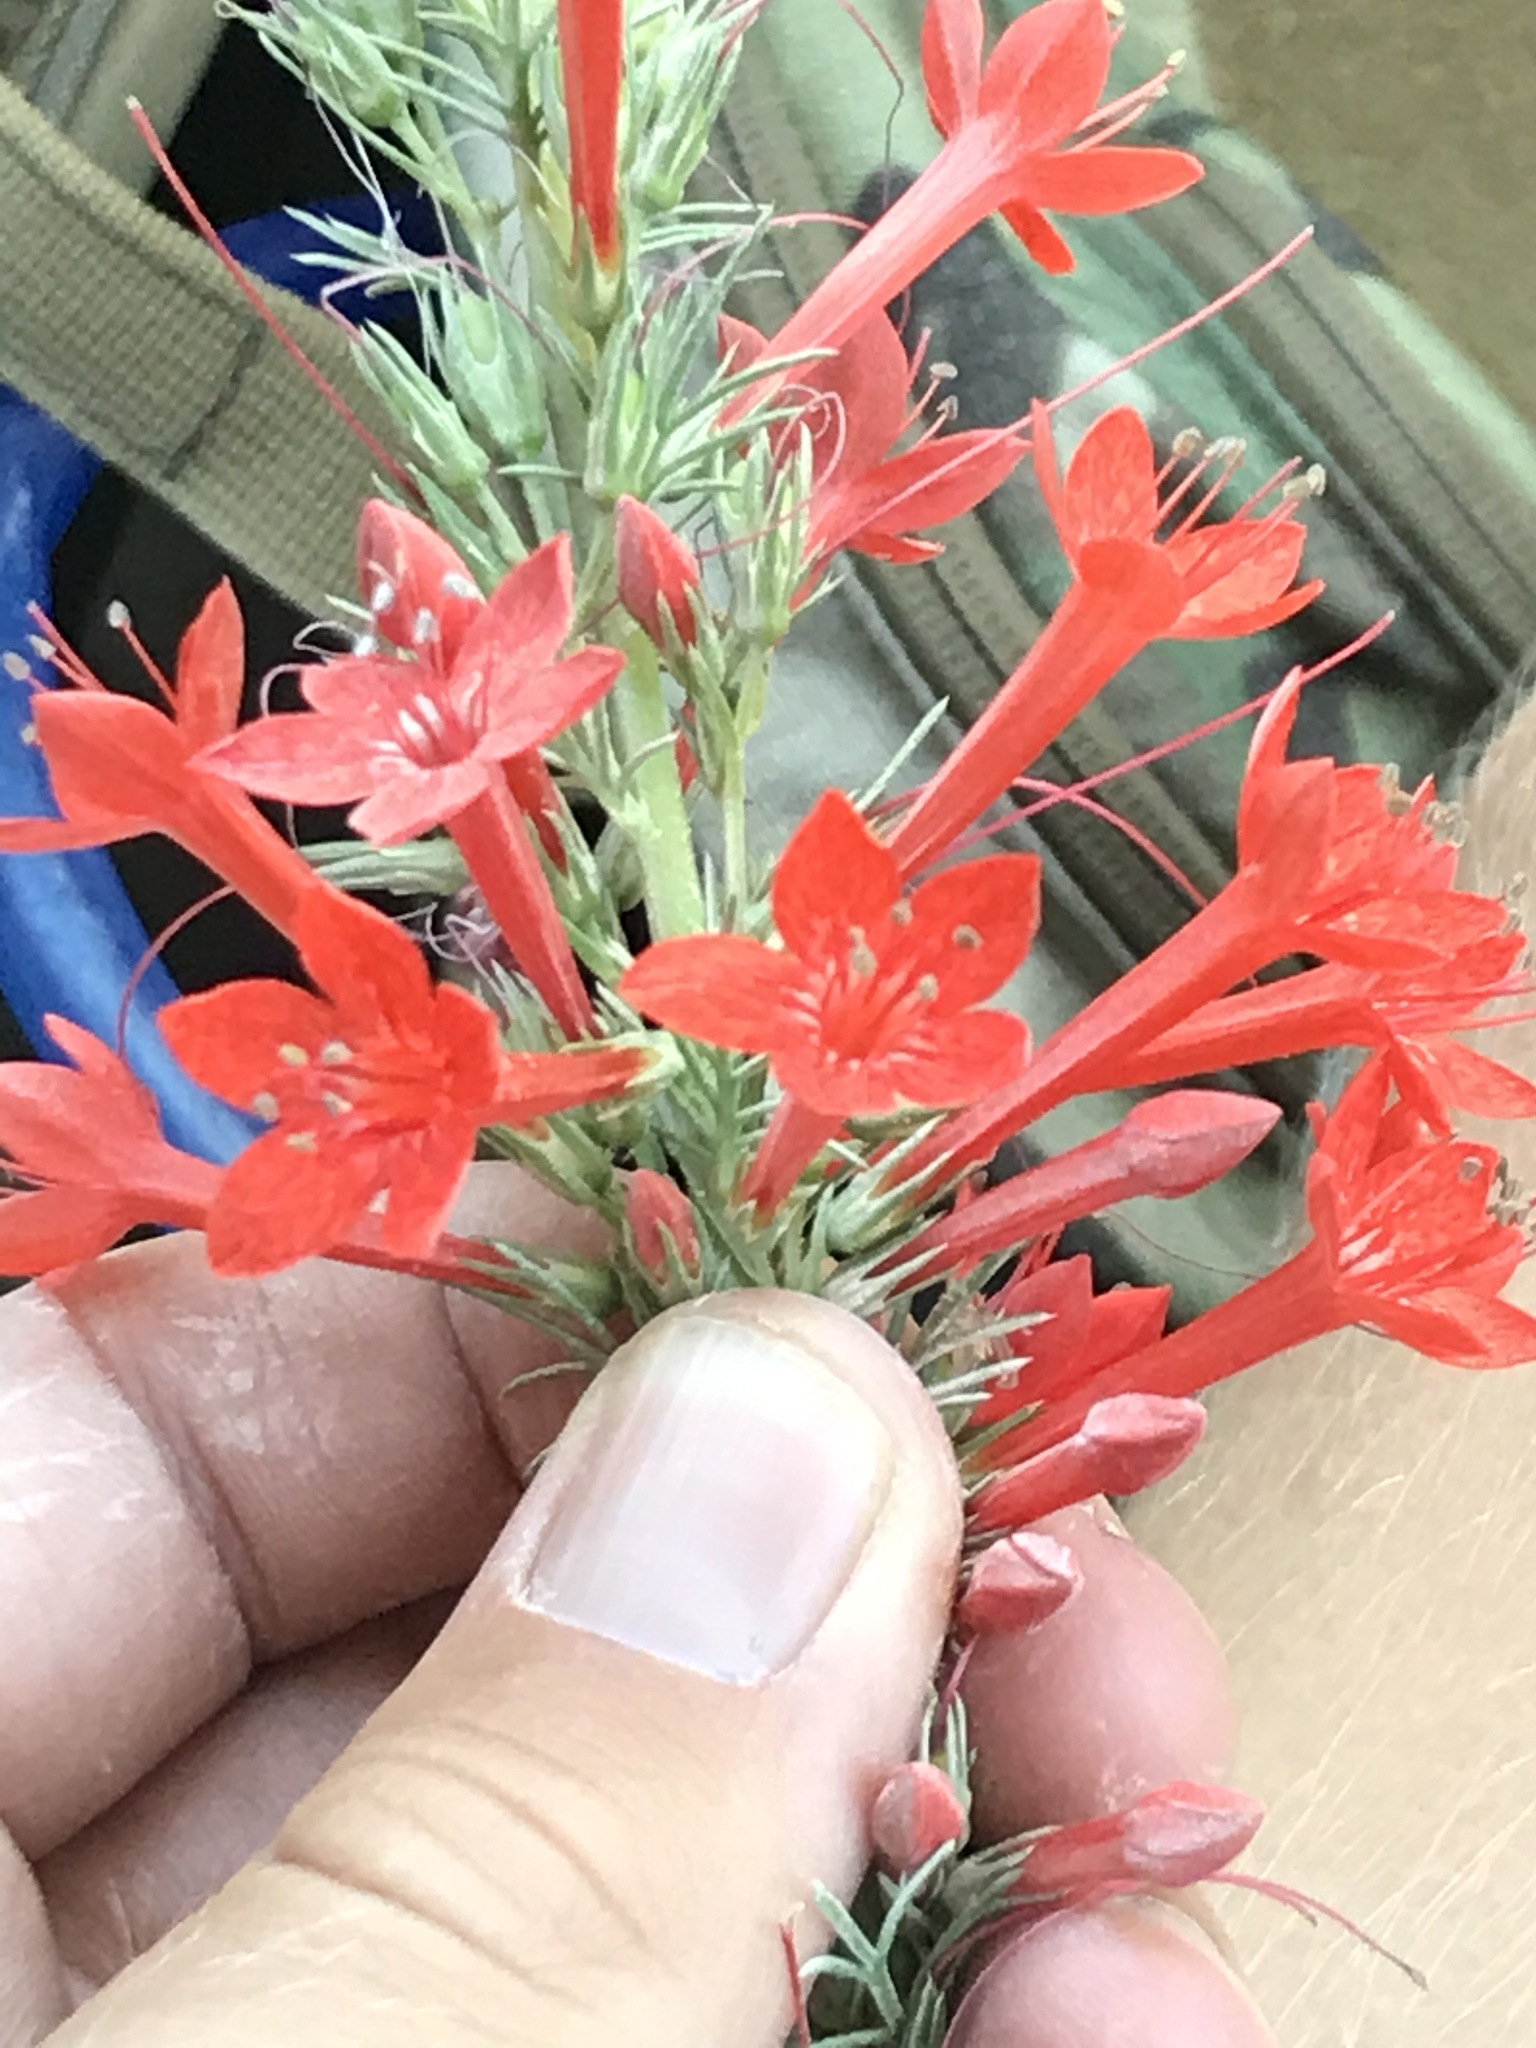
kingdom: Plantae
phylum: Tracheophyta
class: Magnoliopsida
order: Ericales
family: Polemoniaceae
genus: Ipomopsis
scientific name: Ipomopsis rubra
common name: Skyrocket
